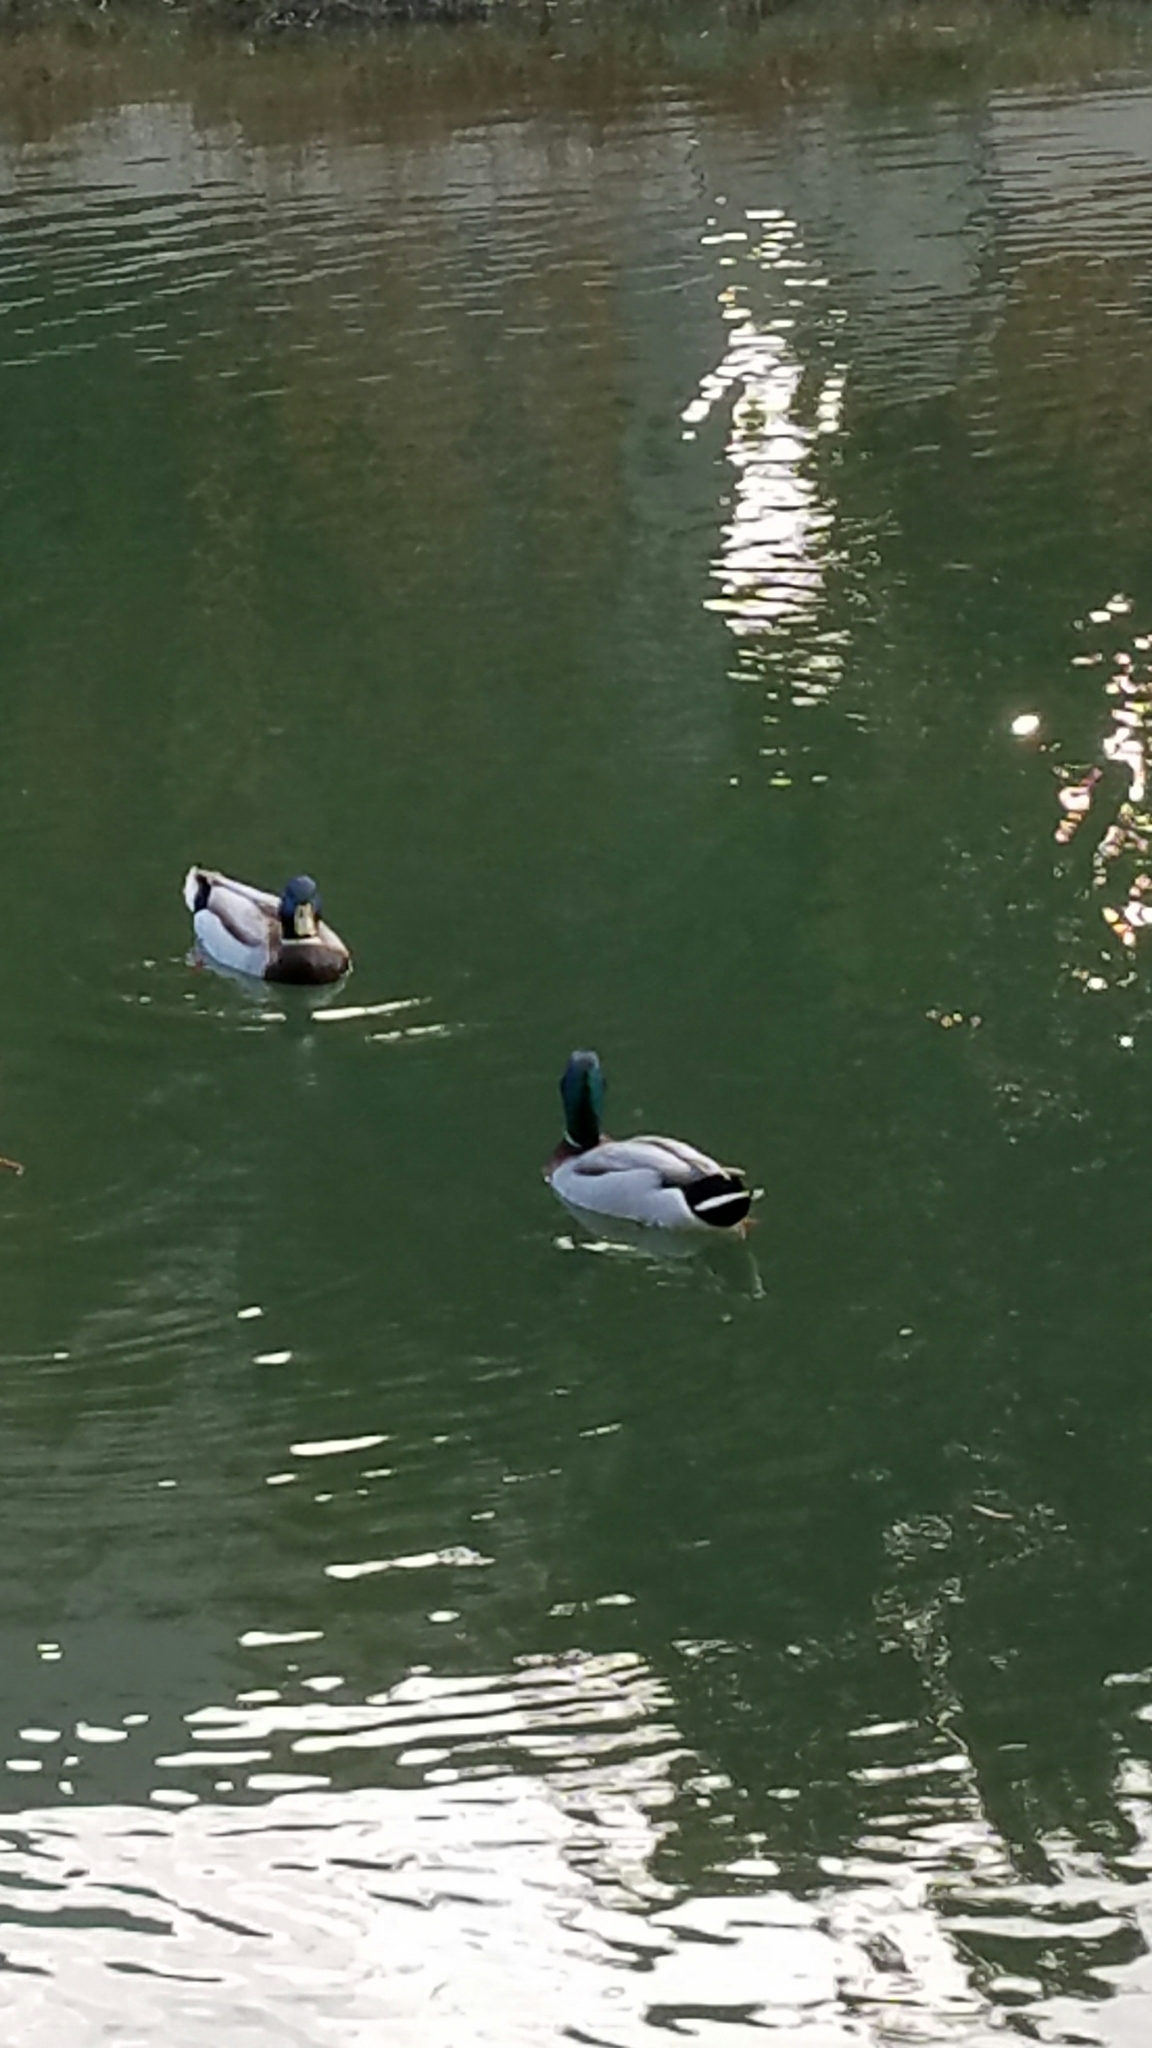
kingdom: Animalia
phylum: Chordata
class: Aves
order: Anseriformes
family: Anatidae
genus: Anas
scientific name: Anas platyrhynchos
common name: Mallard
